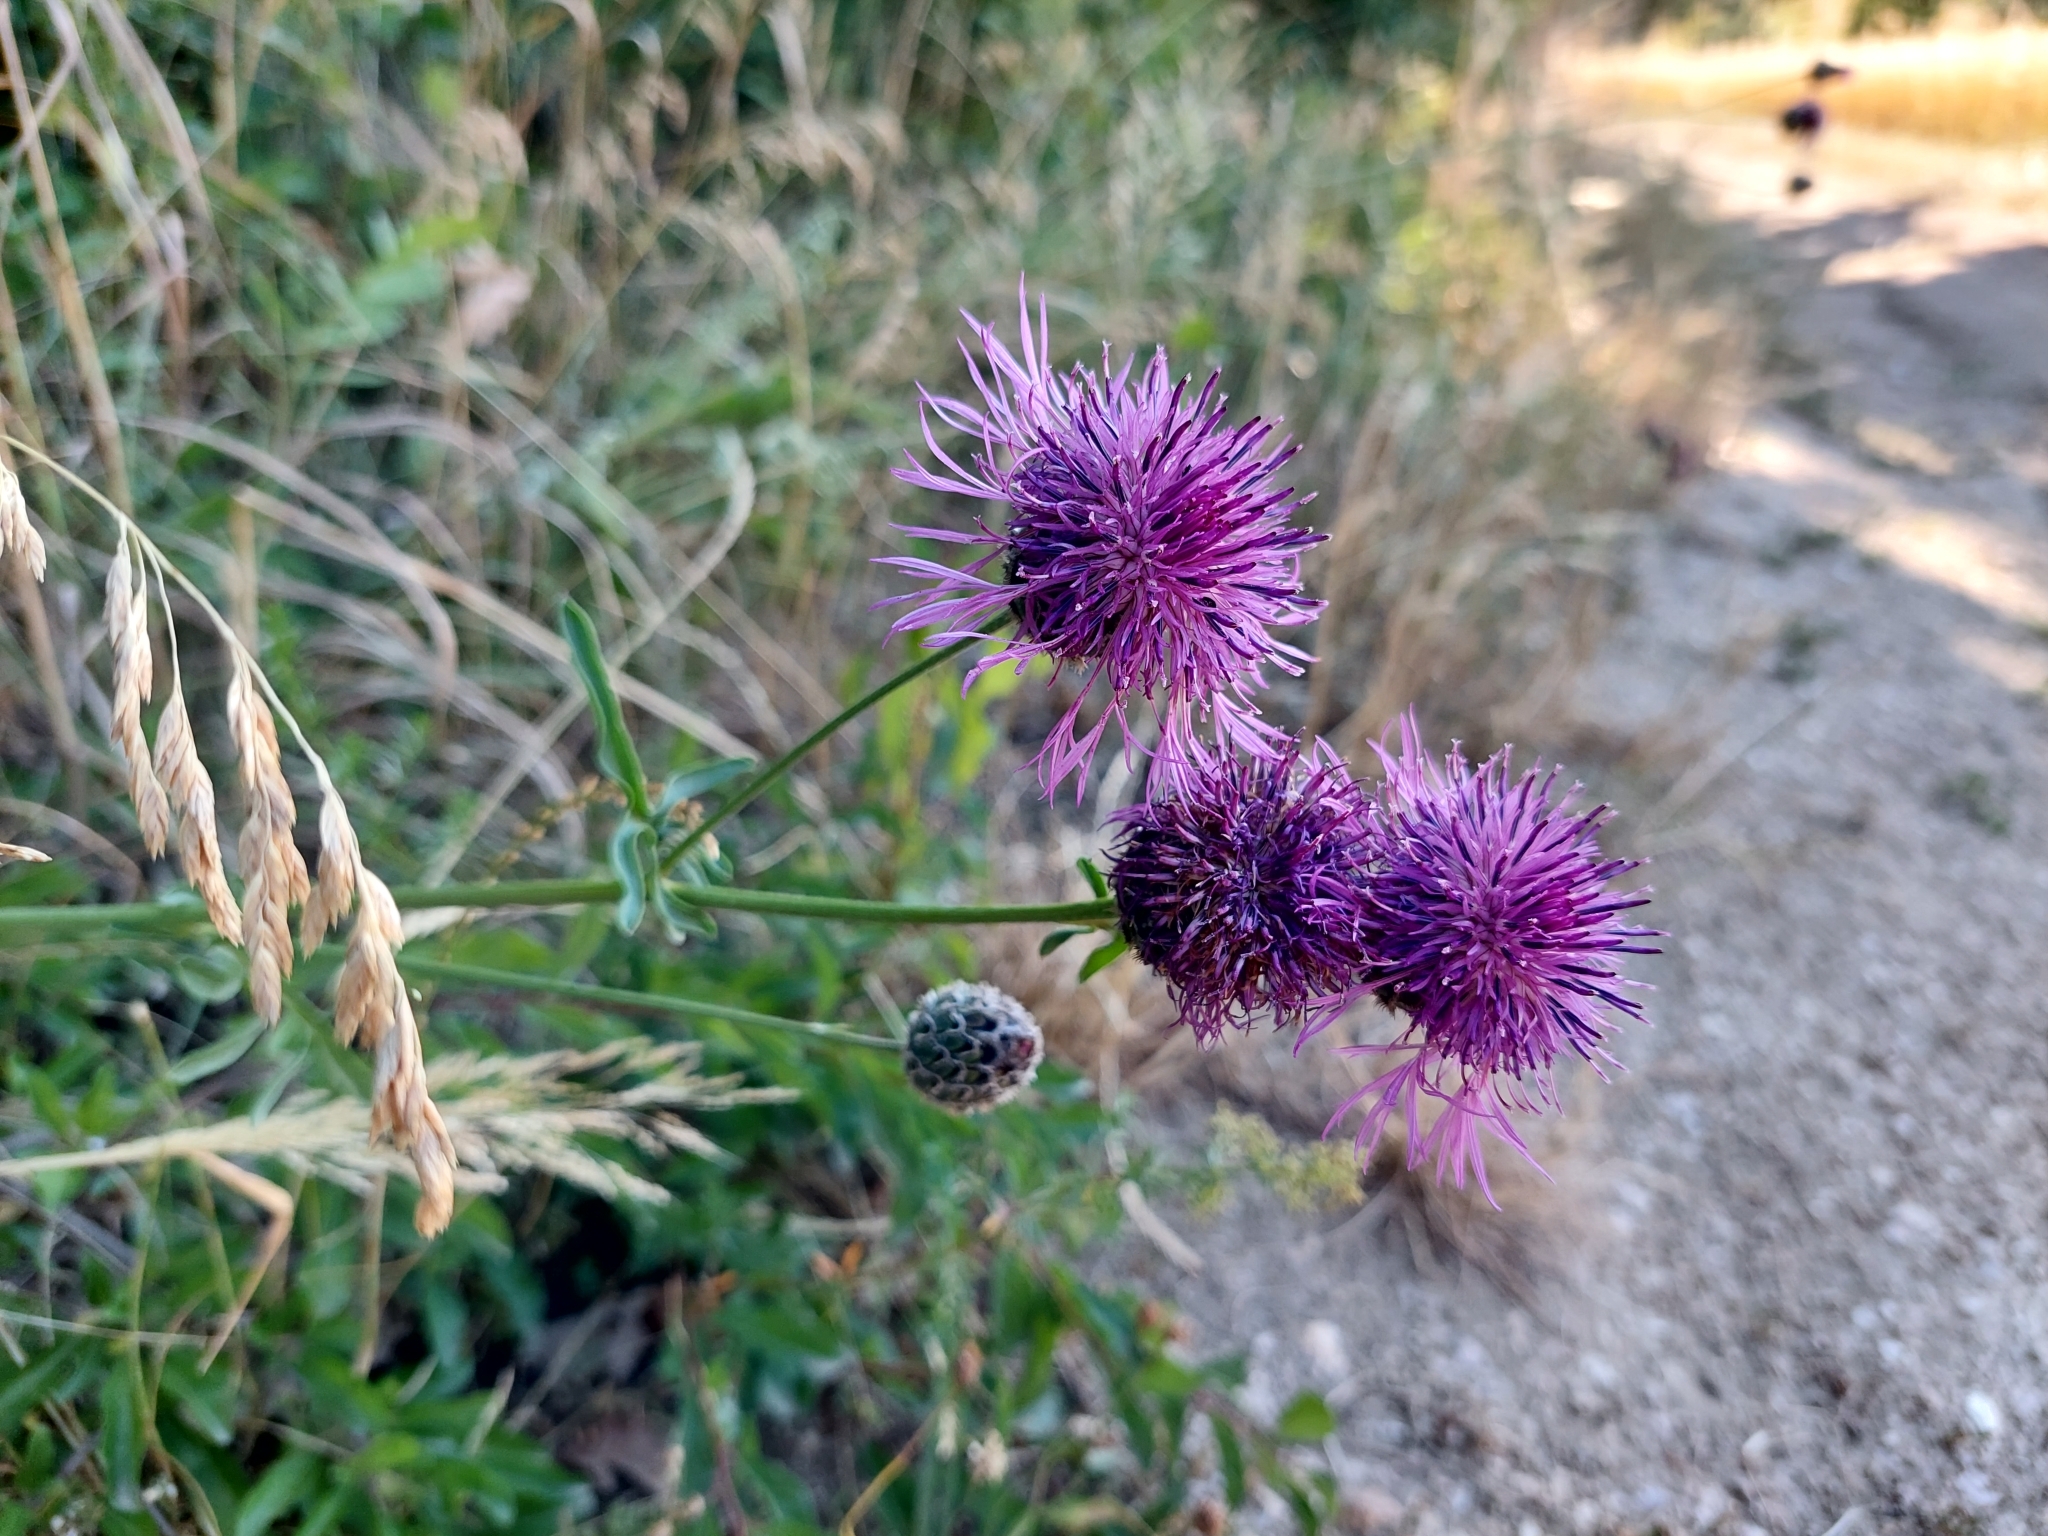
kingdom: Plantae
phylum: Tracheophyta
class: Magnoliopsida
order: Asterales
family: Asteraceae
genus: Centaurea
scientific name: Centaurea scabiosa
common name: Greater knapweed
